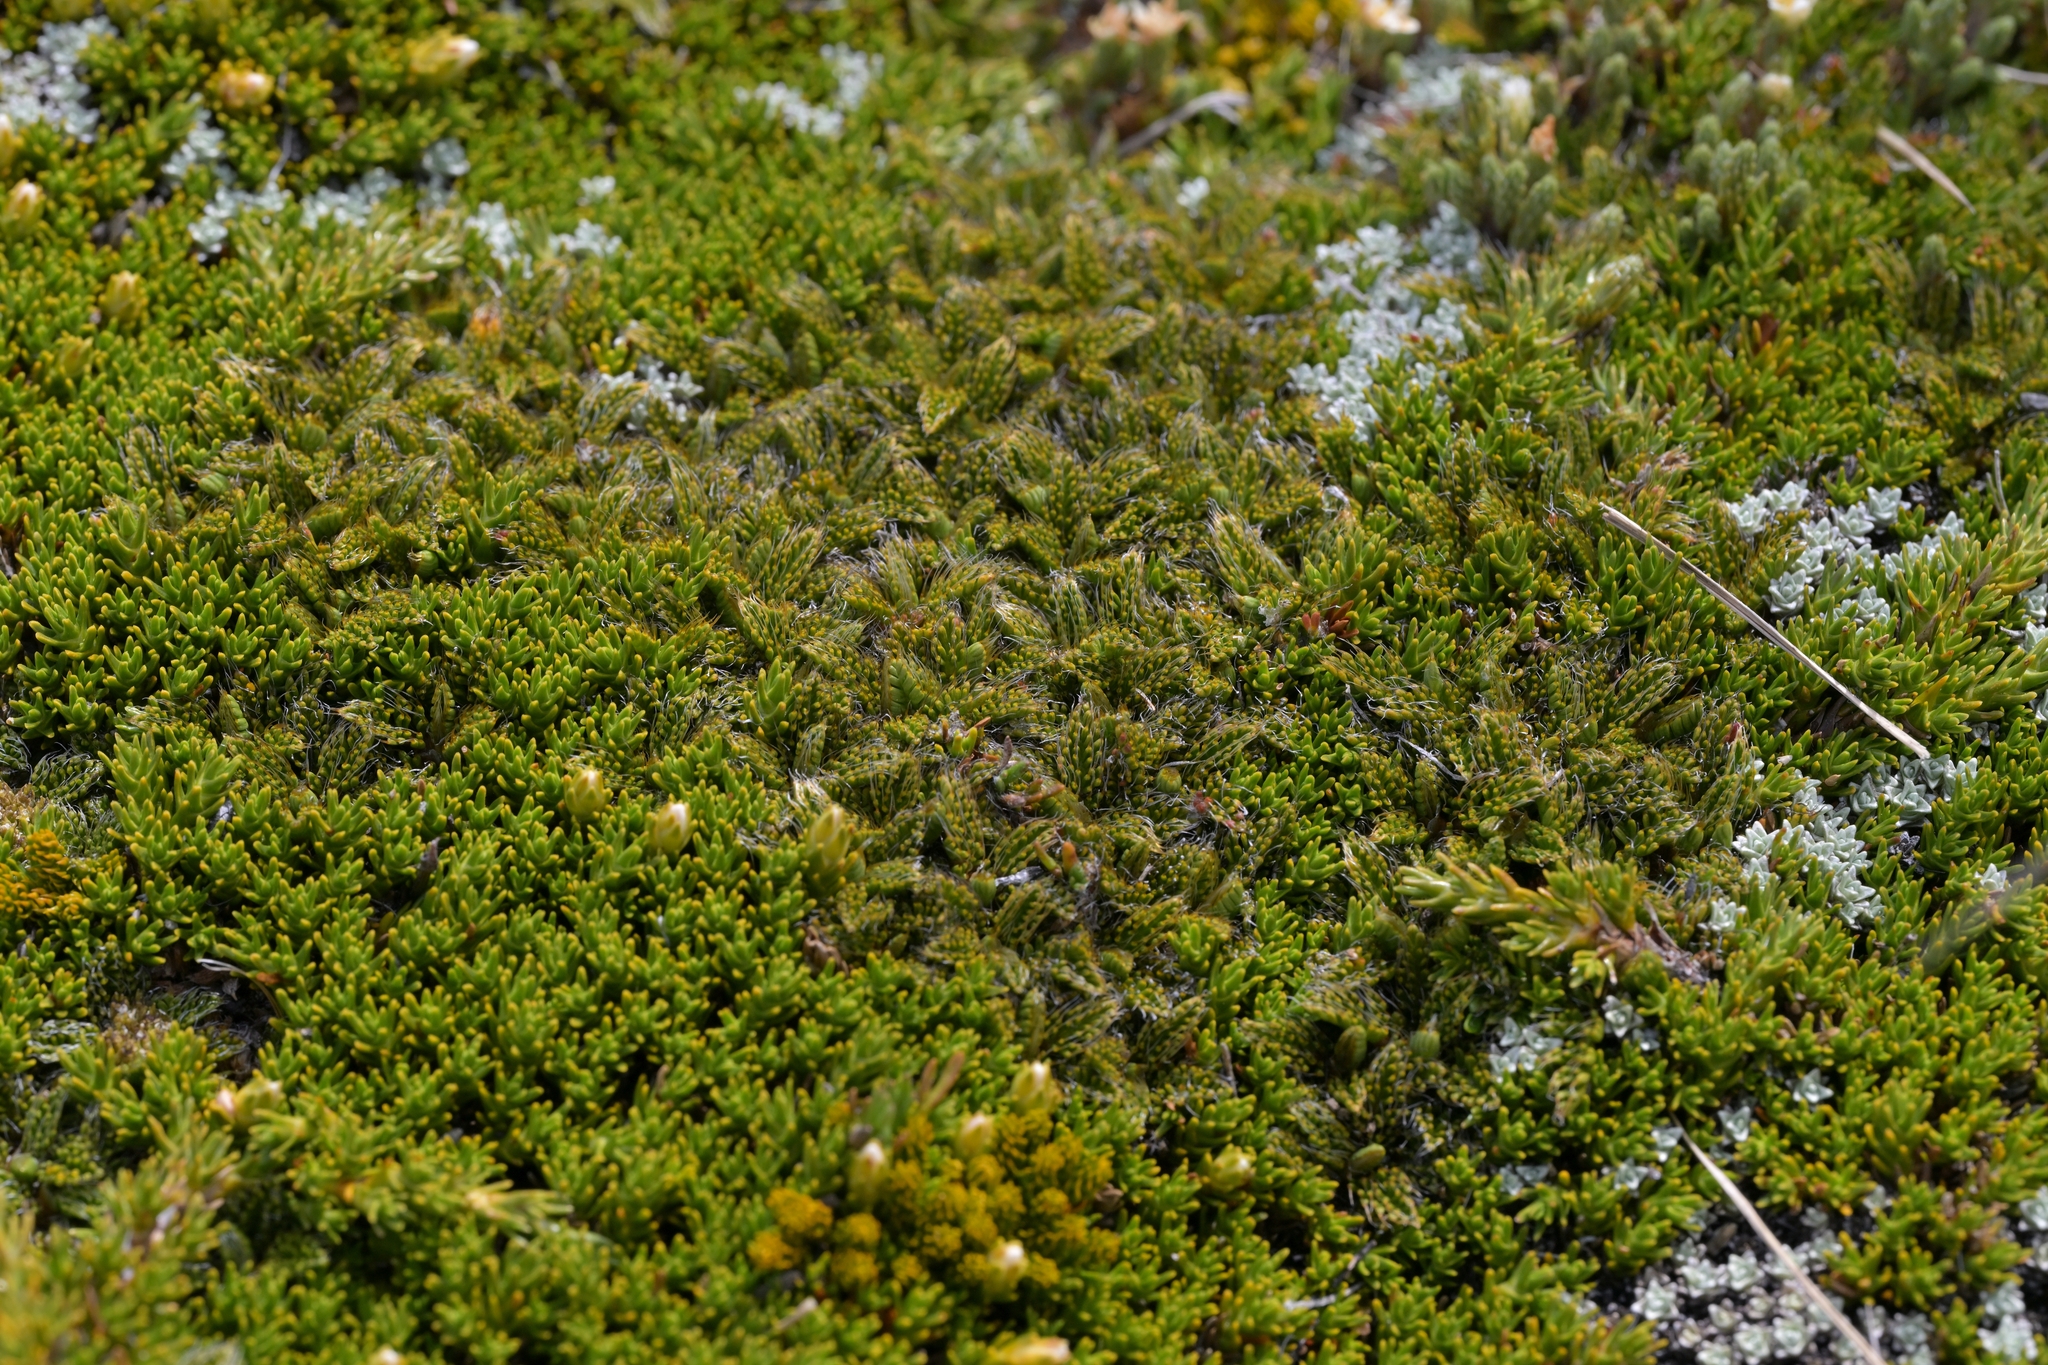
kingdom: Plantae
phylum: Tracheophyta
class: Magnoliopsida
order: Apiales
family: Apiaceae
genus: Anisotome
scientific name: Anisotome imbricata
